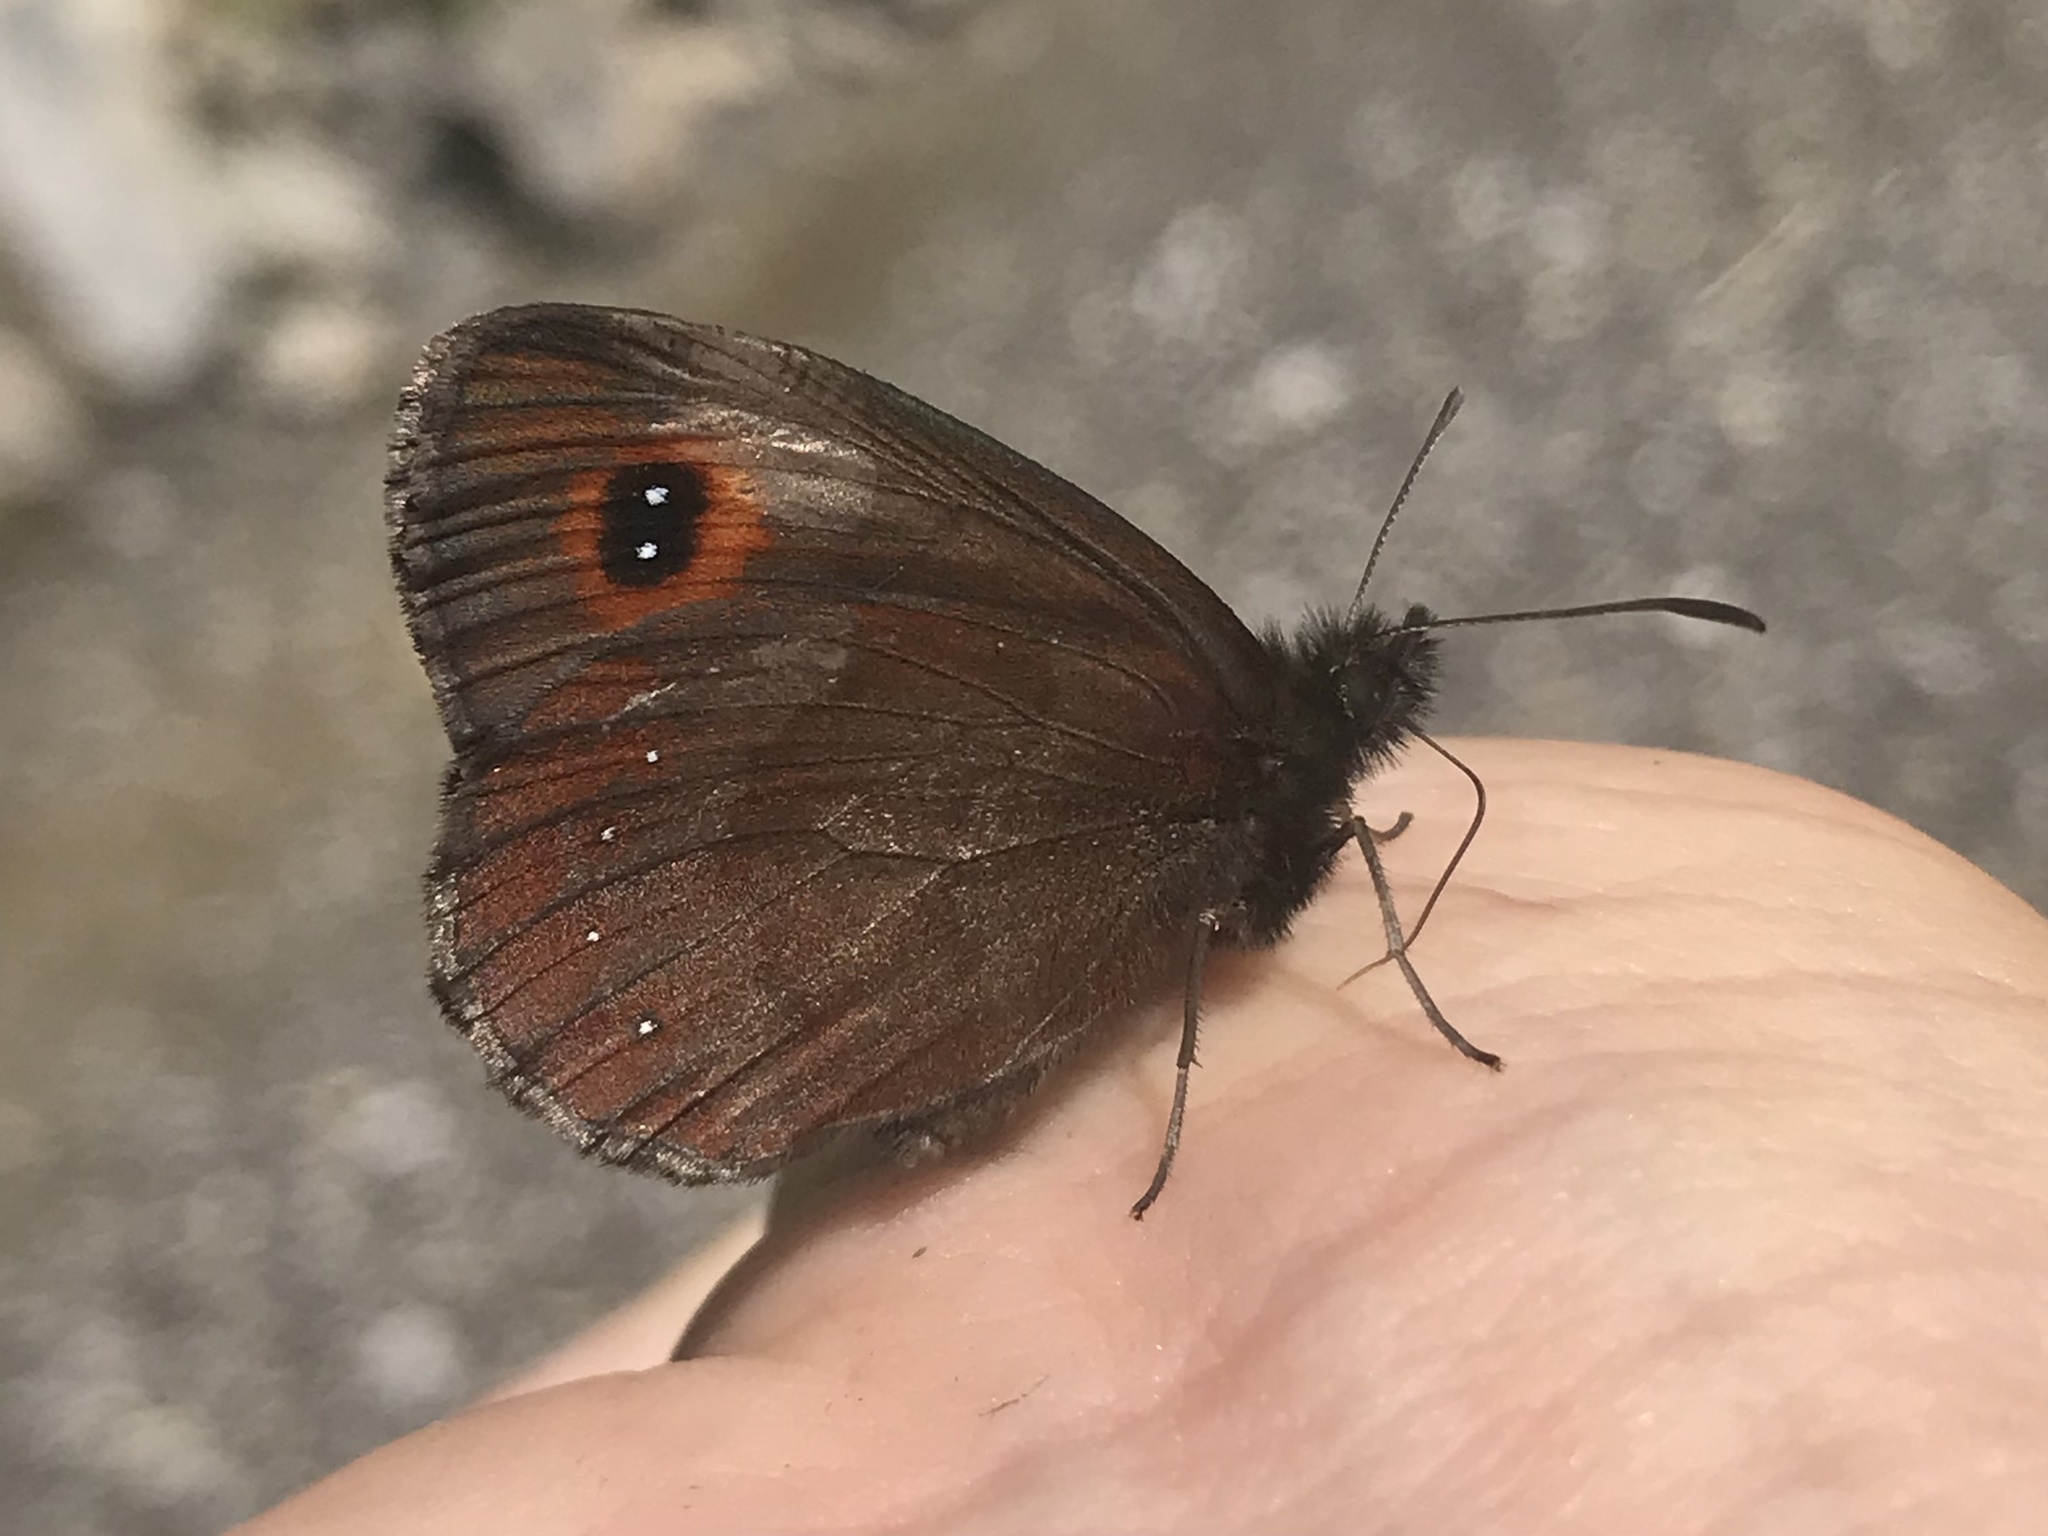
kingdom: Animalia
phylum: Arthropoda
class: Insecta
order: Lepidoptera
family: Nymphalidae
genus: Erebia
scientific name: Erebia aethiops
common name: Scotch argus
